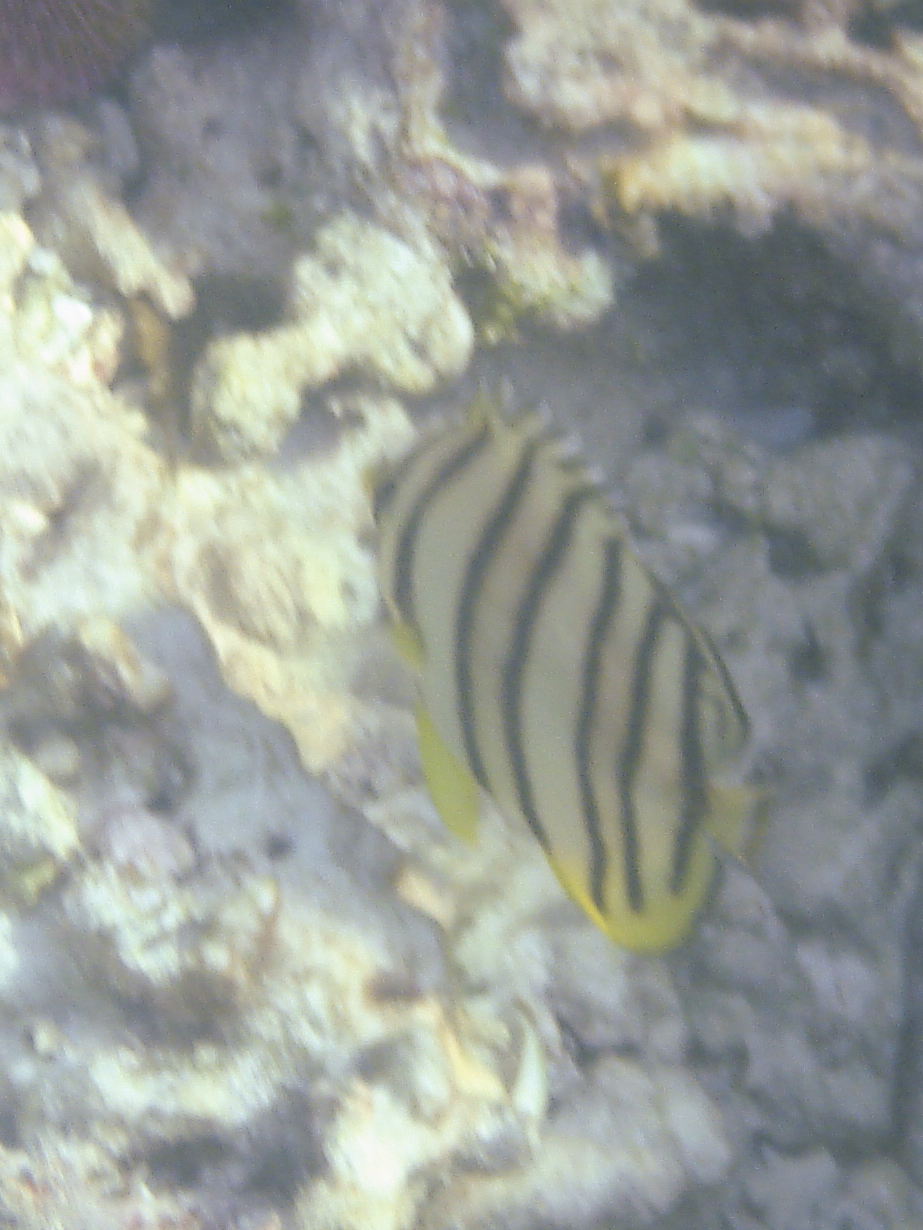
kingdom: Animalia
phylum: Chordata
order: Perciformes
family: Chaetodontidae
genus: Chaetodon
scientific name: Chaetodon octofasciatus
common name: Eightband butterflyfish
